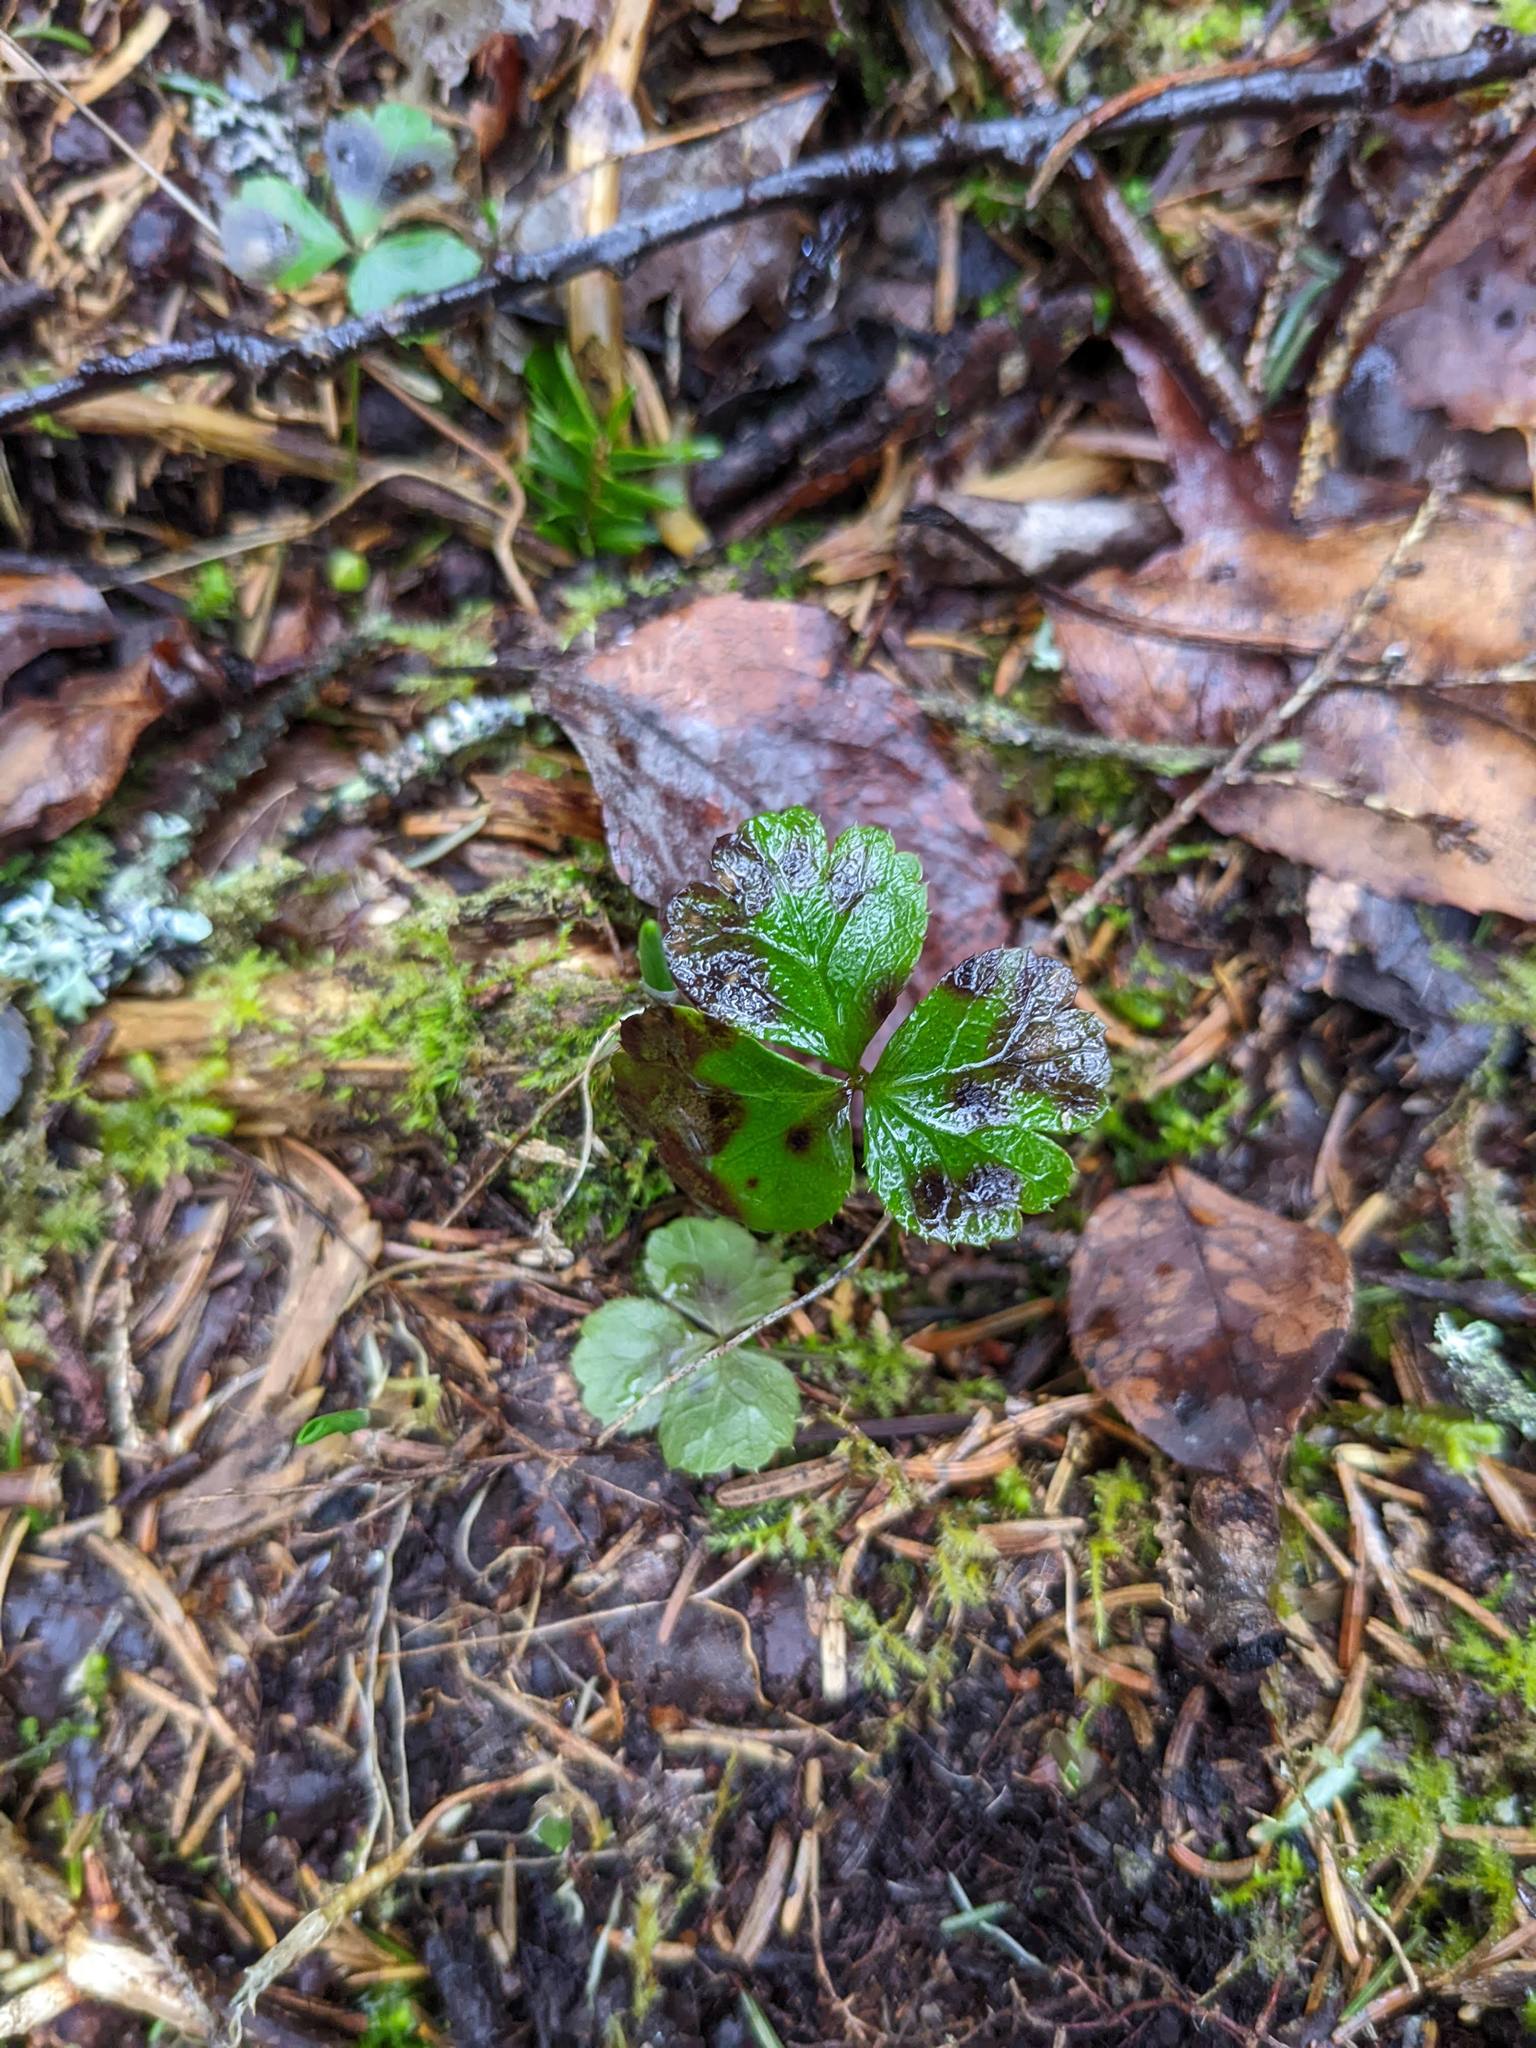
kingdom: Plantae
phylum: Tracheophyta
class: Magnoliopsida
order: Ranunculales
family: Ranunculaceae
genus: Coptis
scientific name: Coptis trifolia
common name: Canker-root
